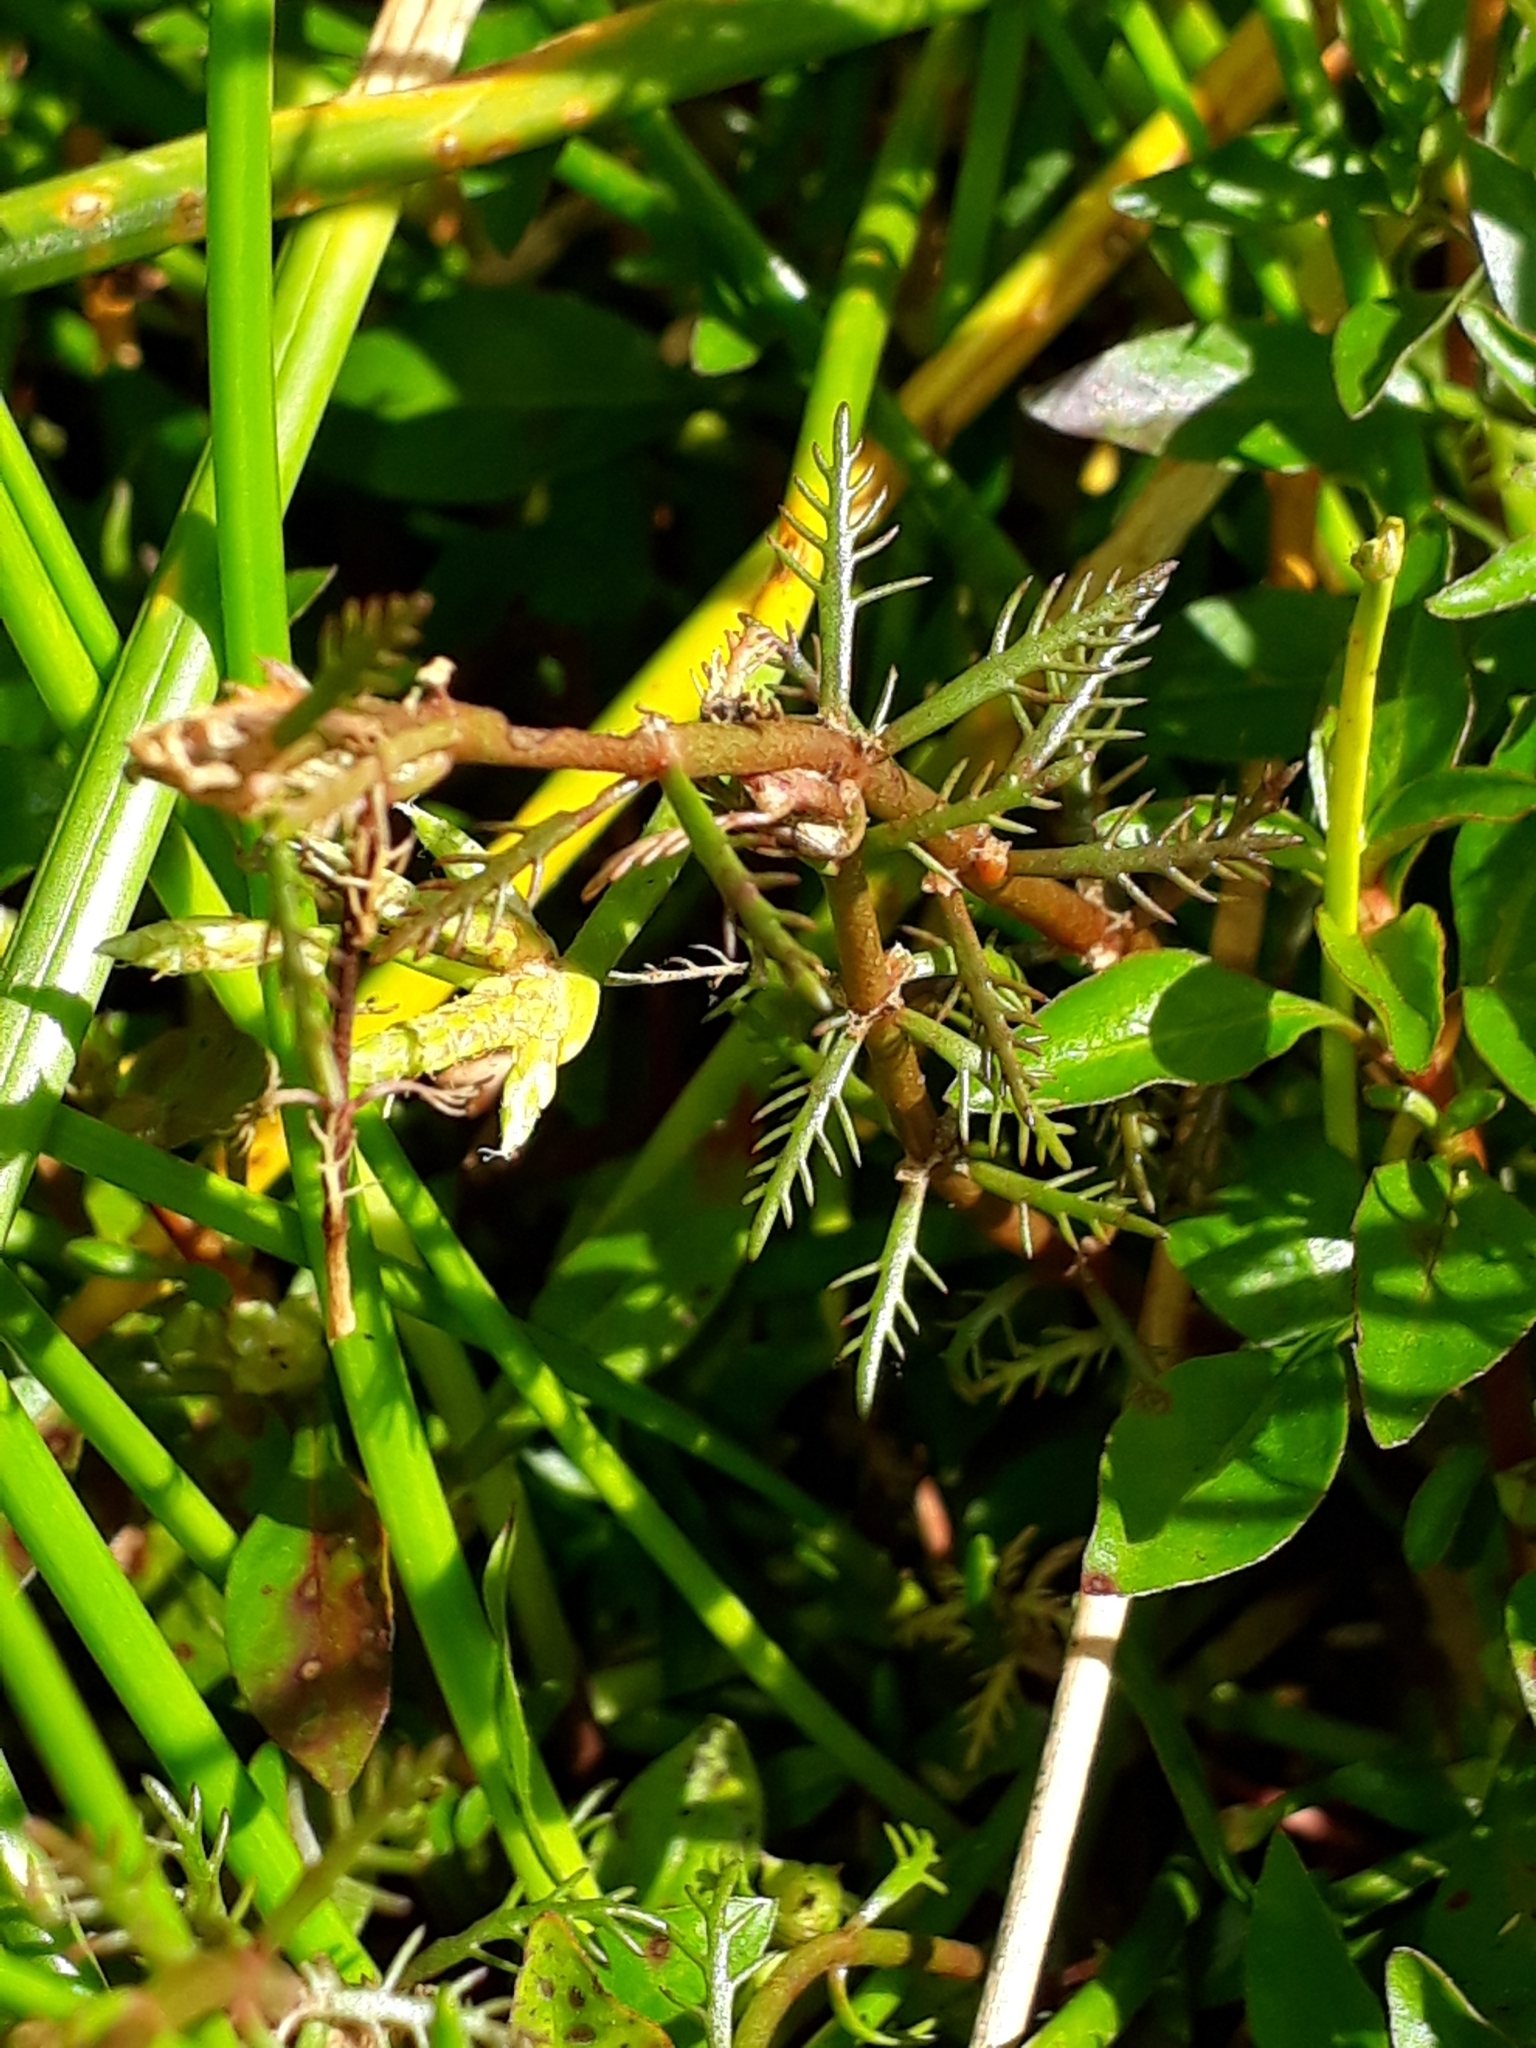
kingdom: Plantae
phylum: Tracheophyta
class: Magnoliopsida
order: Saxifragales
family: Haloragaceae
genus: Myriophyllum
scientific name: Myriophyllum propinquum
